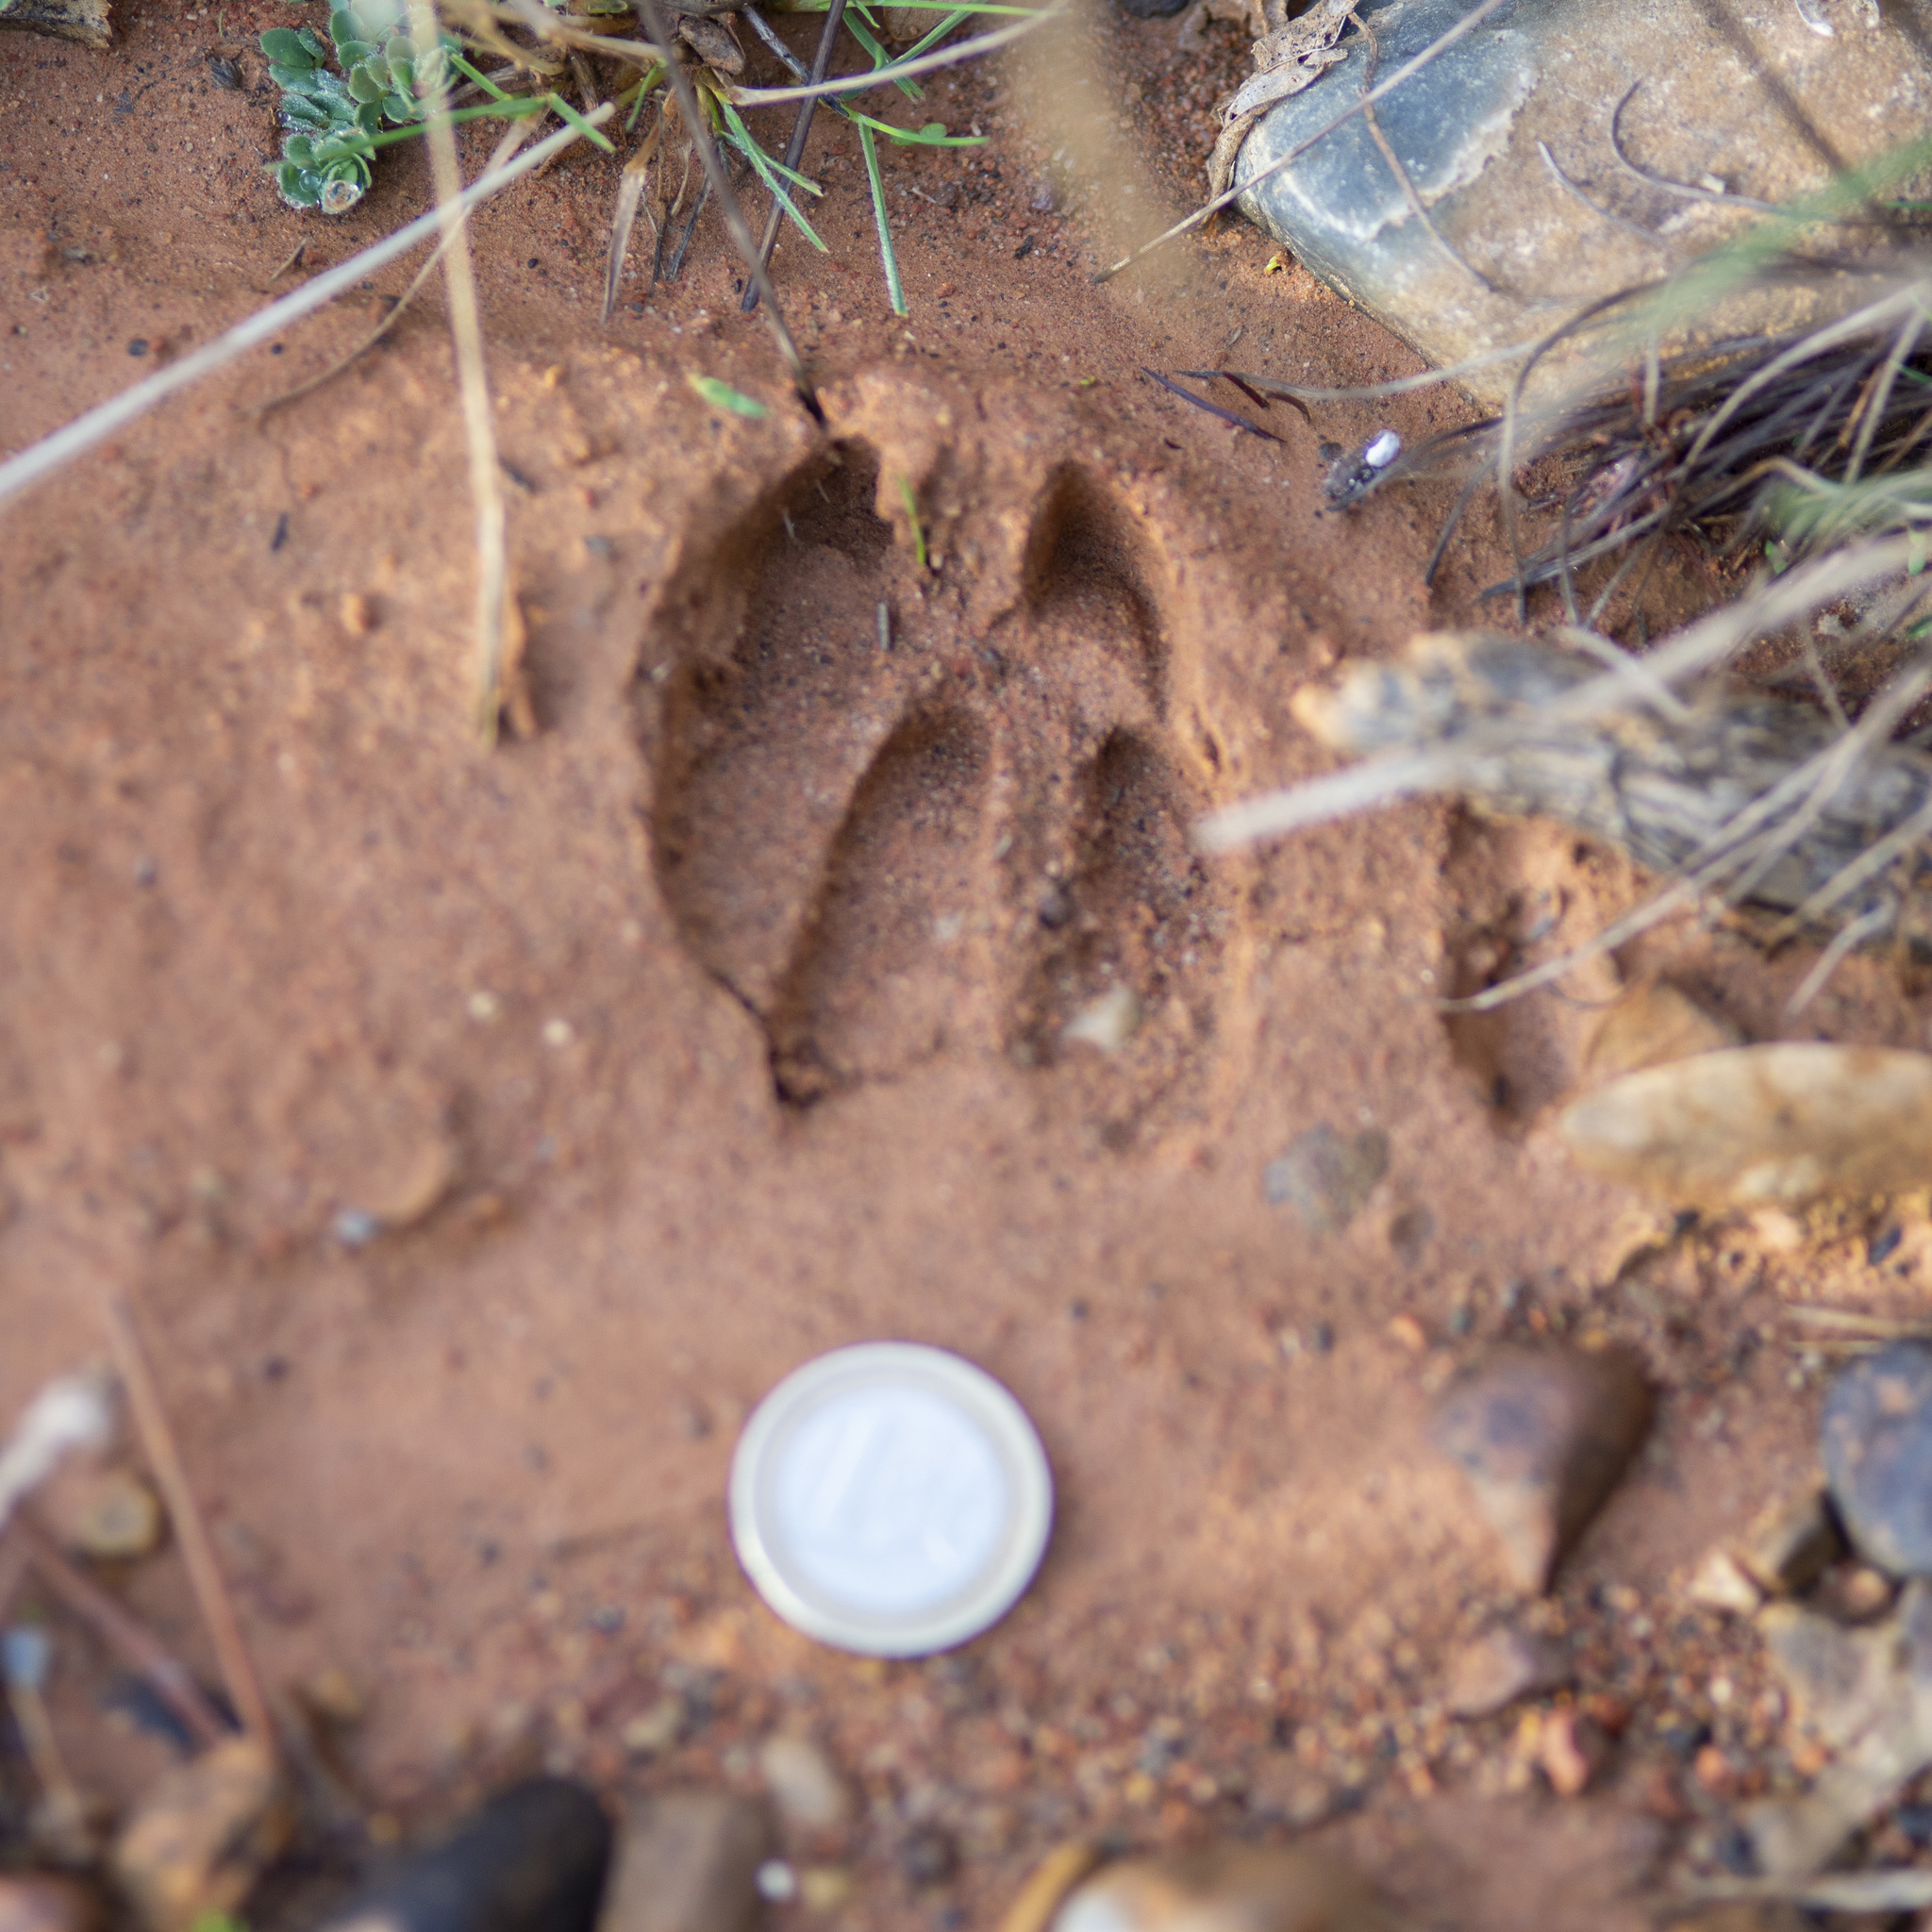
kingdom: Animalia
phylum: Chordata
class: Mammalia
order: Artiodactyla
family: Cervidae
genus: Capreolus
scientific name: Capreolus capreolus
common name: Western roe deer
